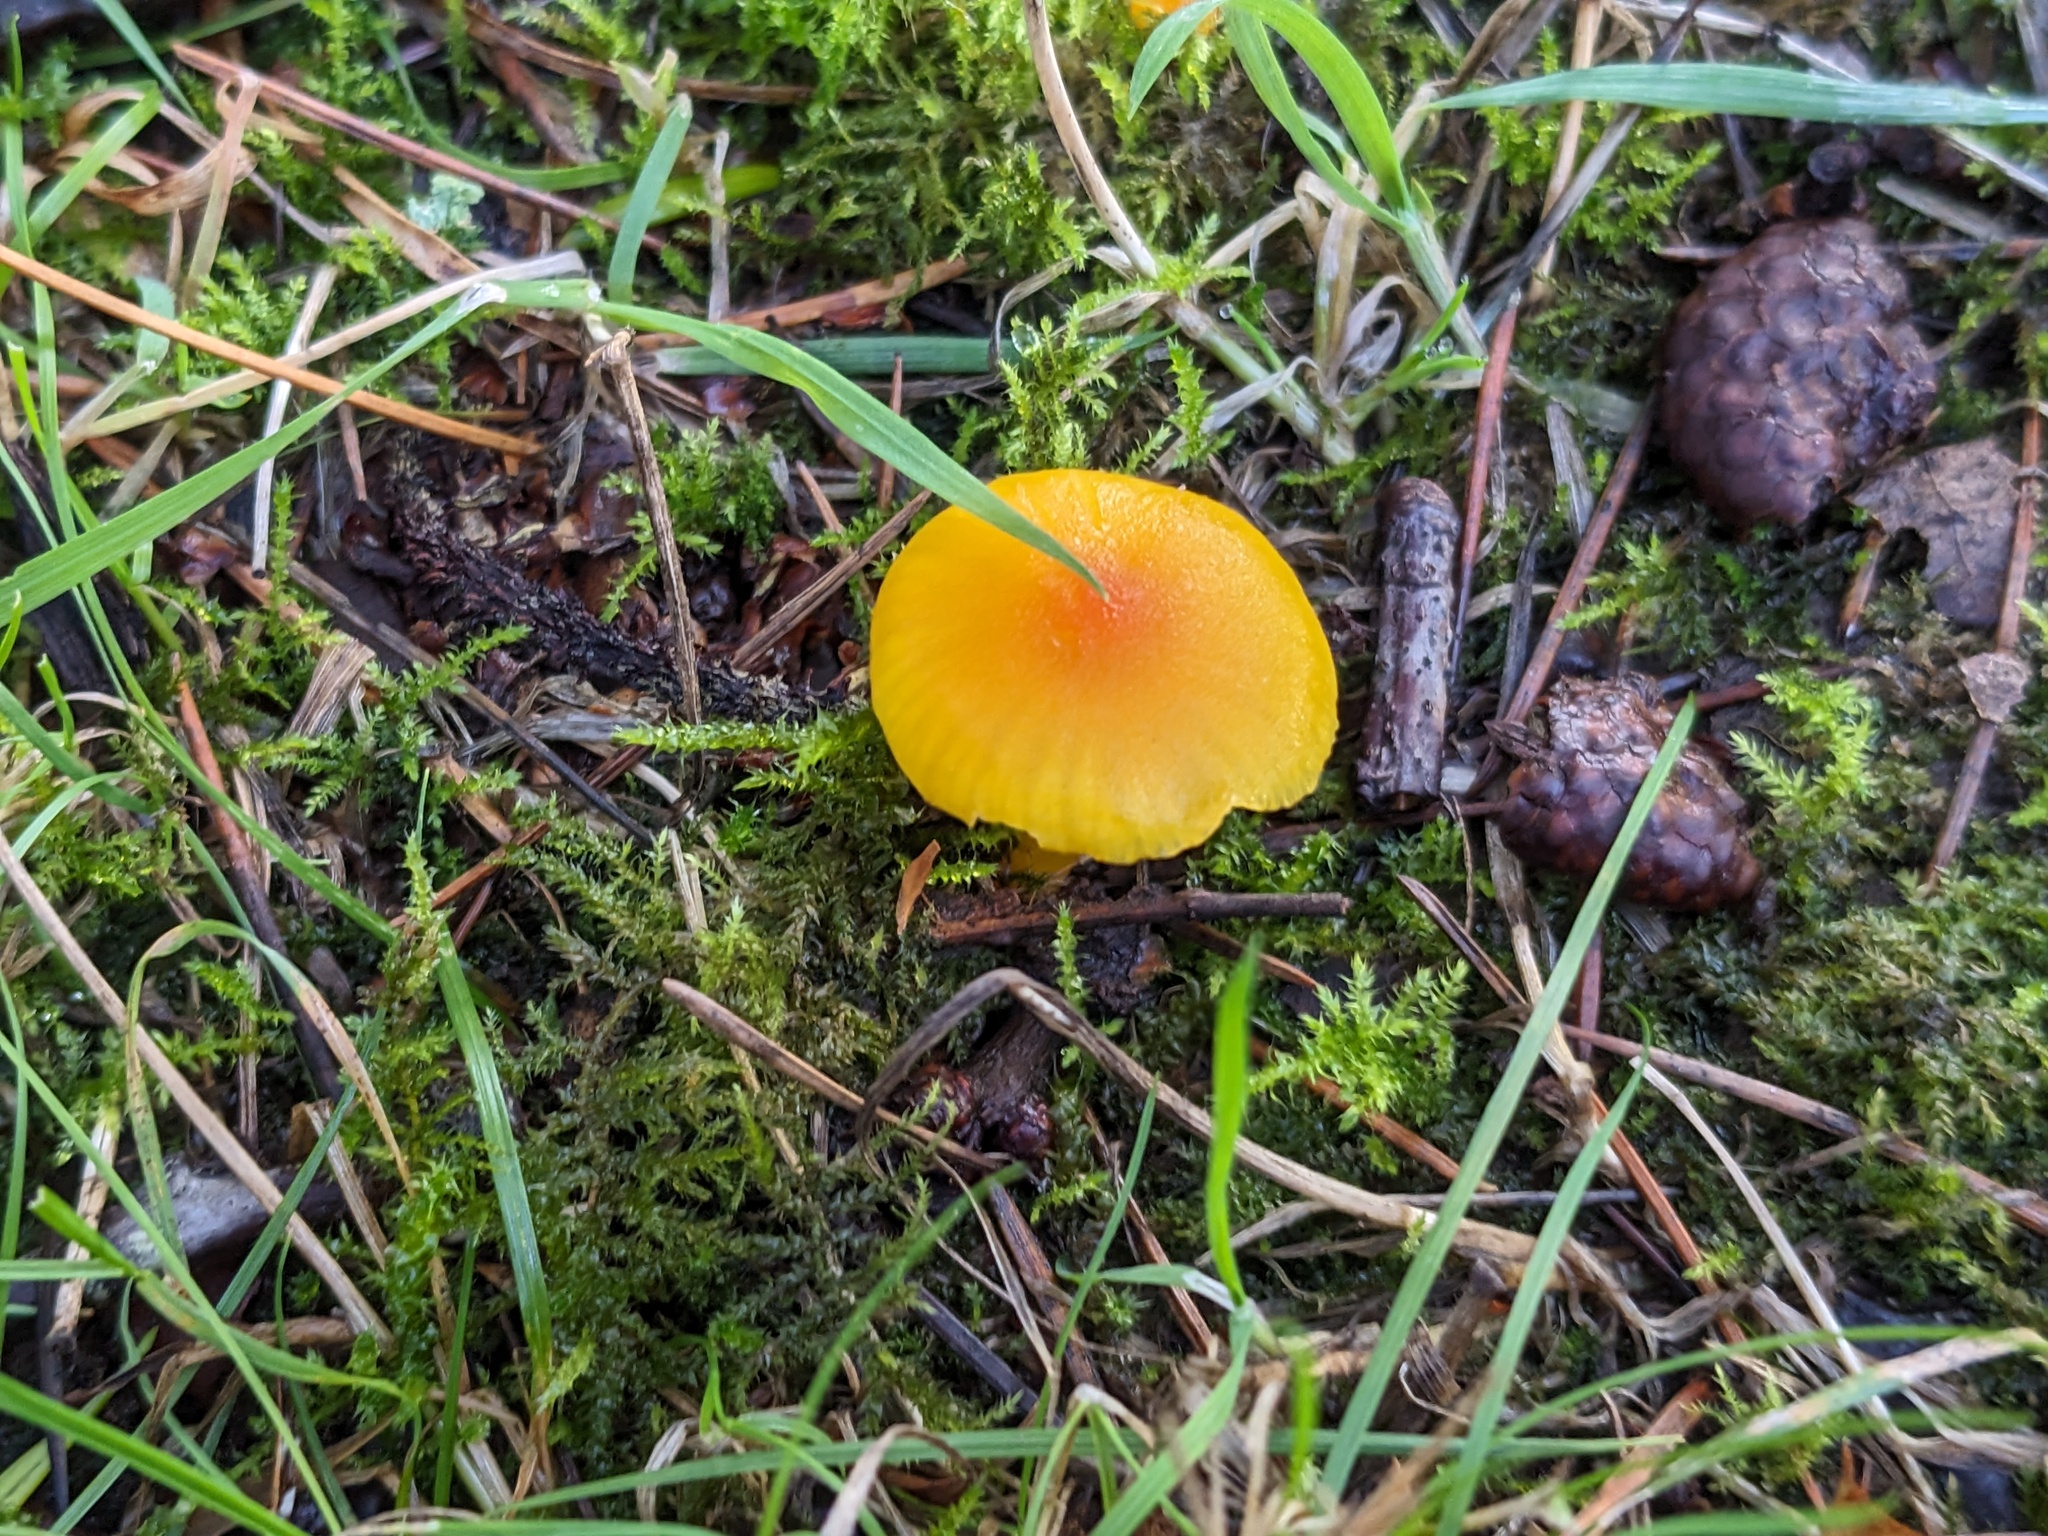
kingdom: Fungi
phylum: Basidiomycota
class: Agaricomycetes
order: Agaricales
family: Hygrophoraceae
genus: Hygrocybe
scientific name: Hygrocybe ceracea
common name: Butter waxcap
